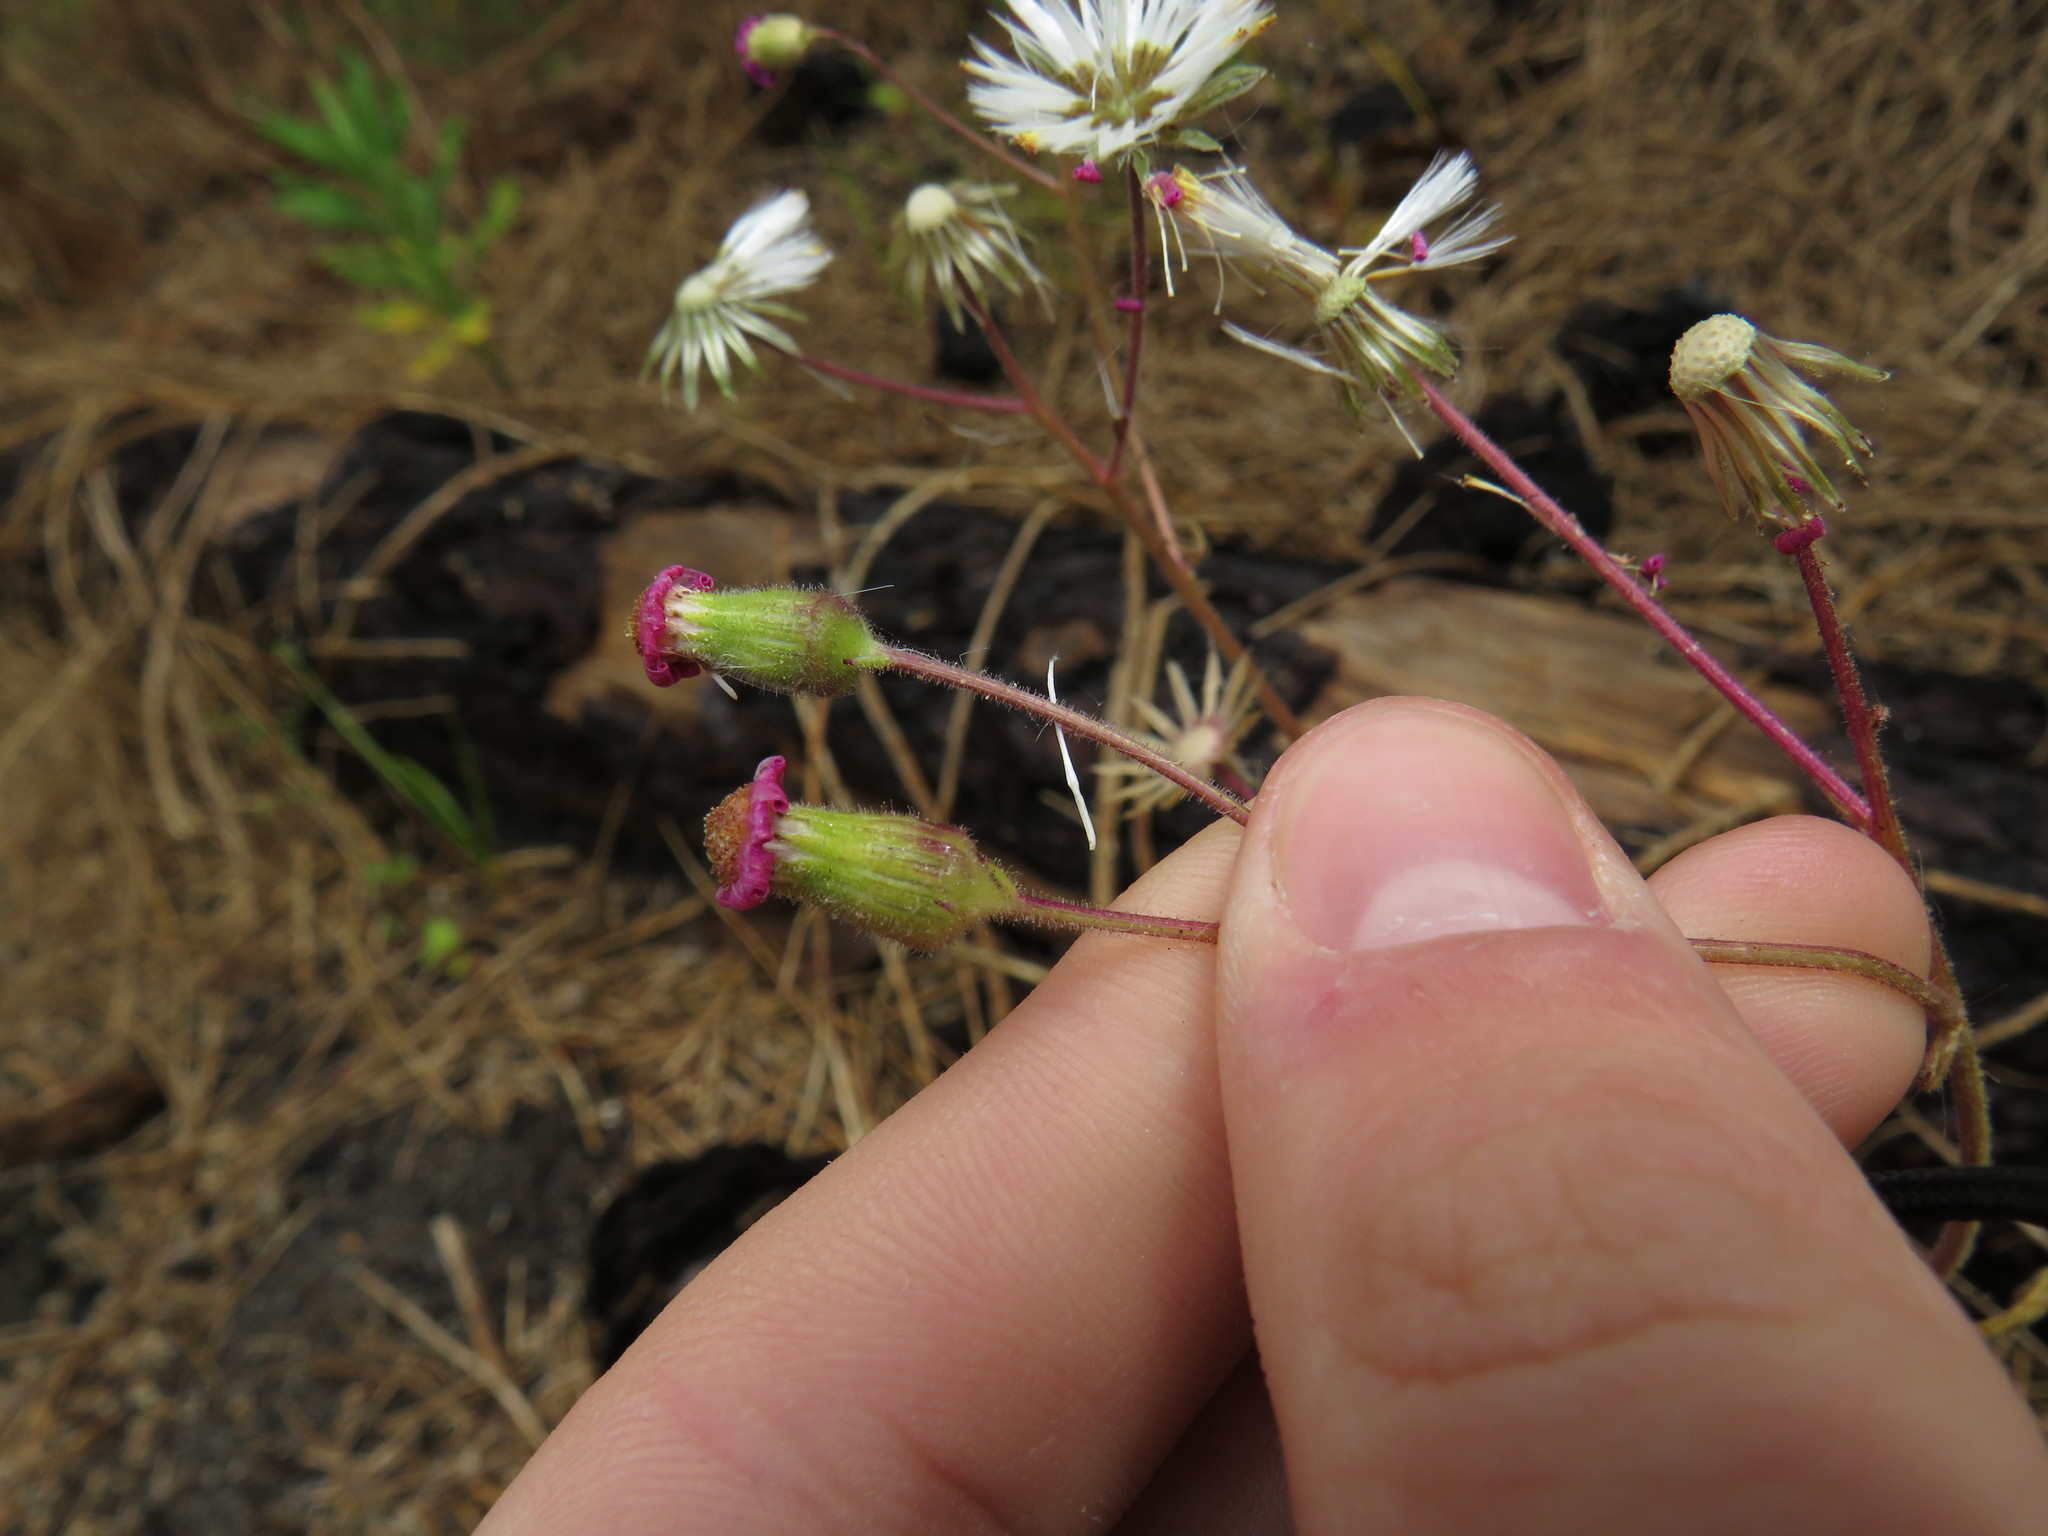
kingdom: Plantae
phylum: Tracheophyta
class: Magnoliopsida
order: Asterales
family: Asteraceae
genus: Senecio
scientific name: Senecio arenarius
